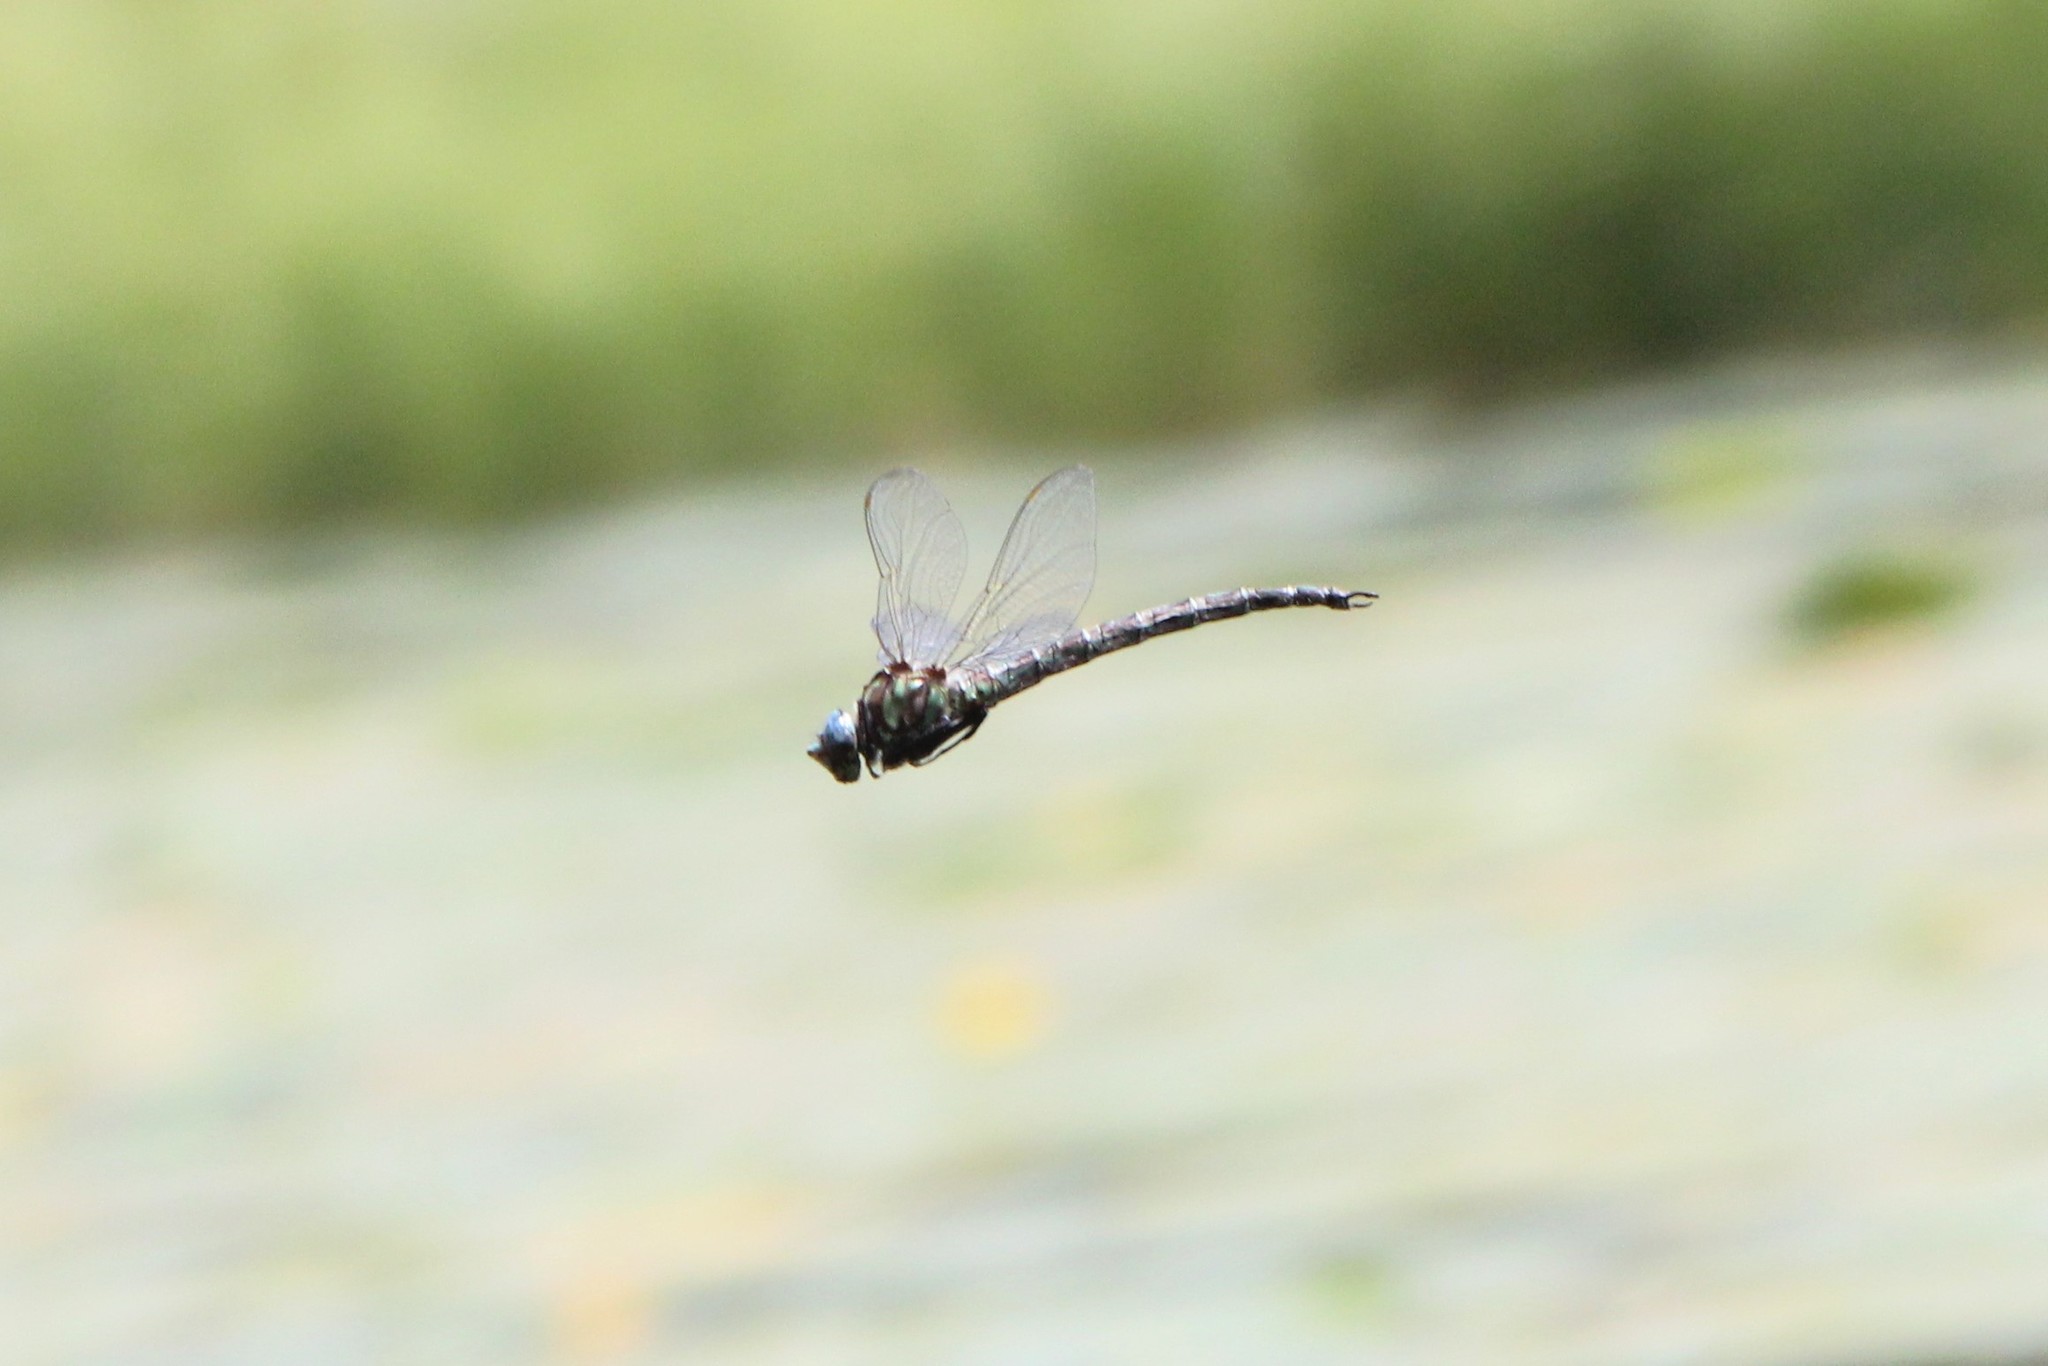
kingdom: Animalia
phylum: Arthropoda
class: Insecta
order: Odonata
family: Aeshnidae
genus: Nasiaeschna
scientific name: Nasiaeschna pentacantha
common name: Cyrano darner
